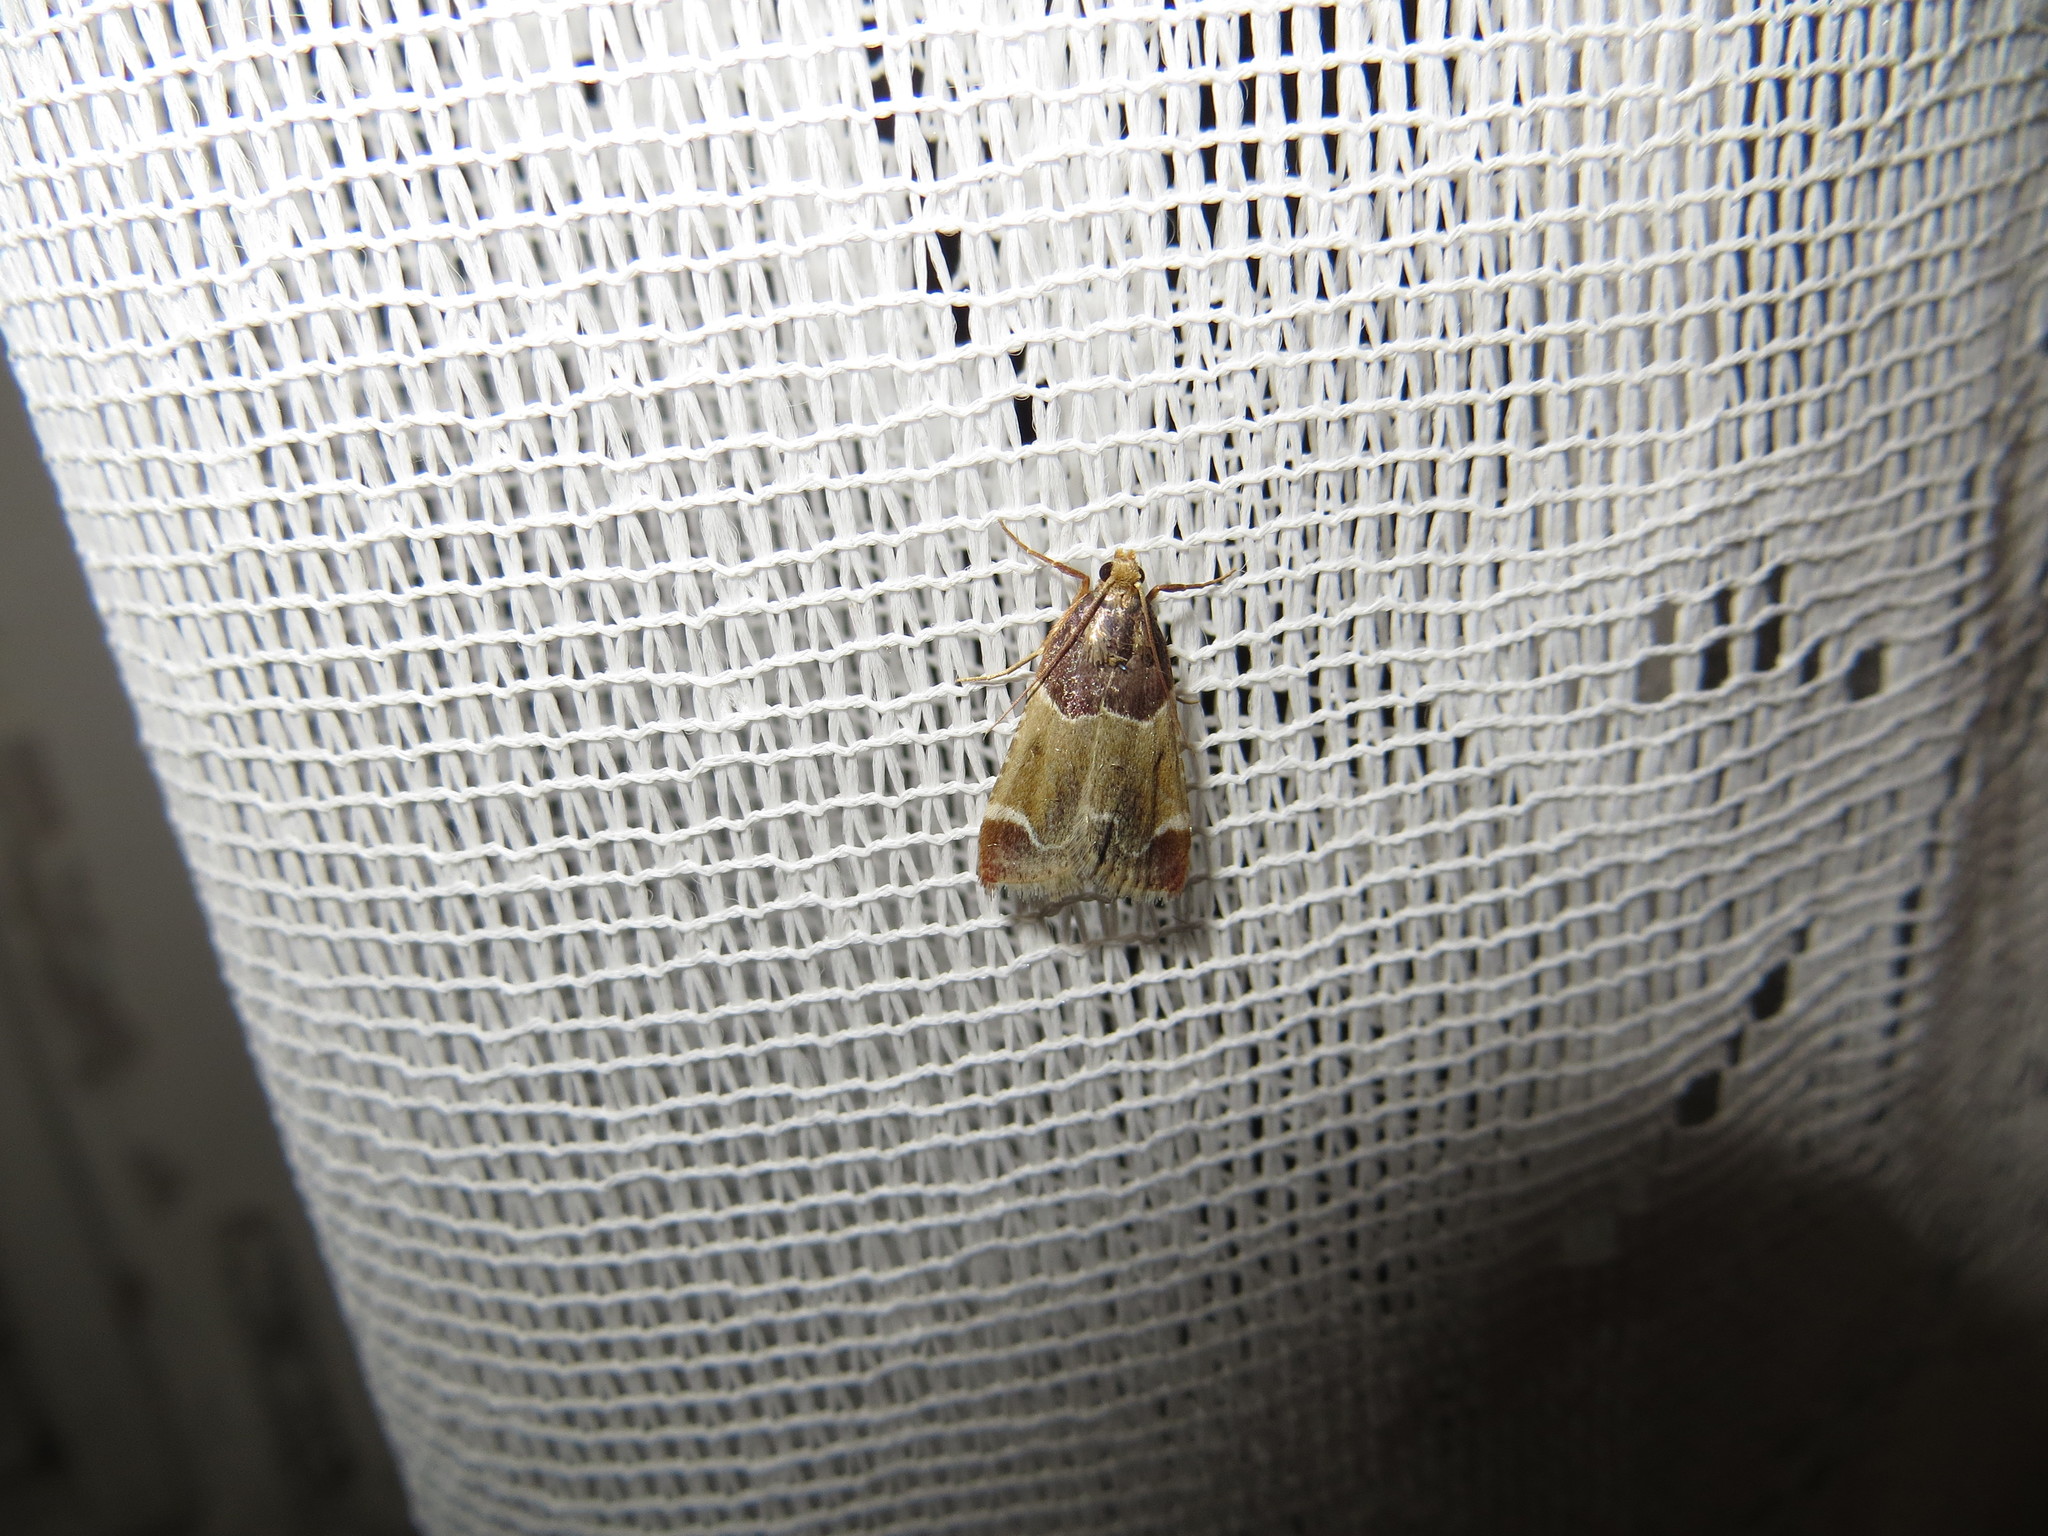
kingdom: Animalia
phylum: Arthropoda
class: Insecta
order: Lepidoptera
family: Pyralidae
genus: Pyralis
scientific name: Pyralis farinalis
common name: Meal moth
